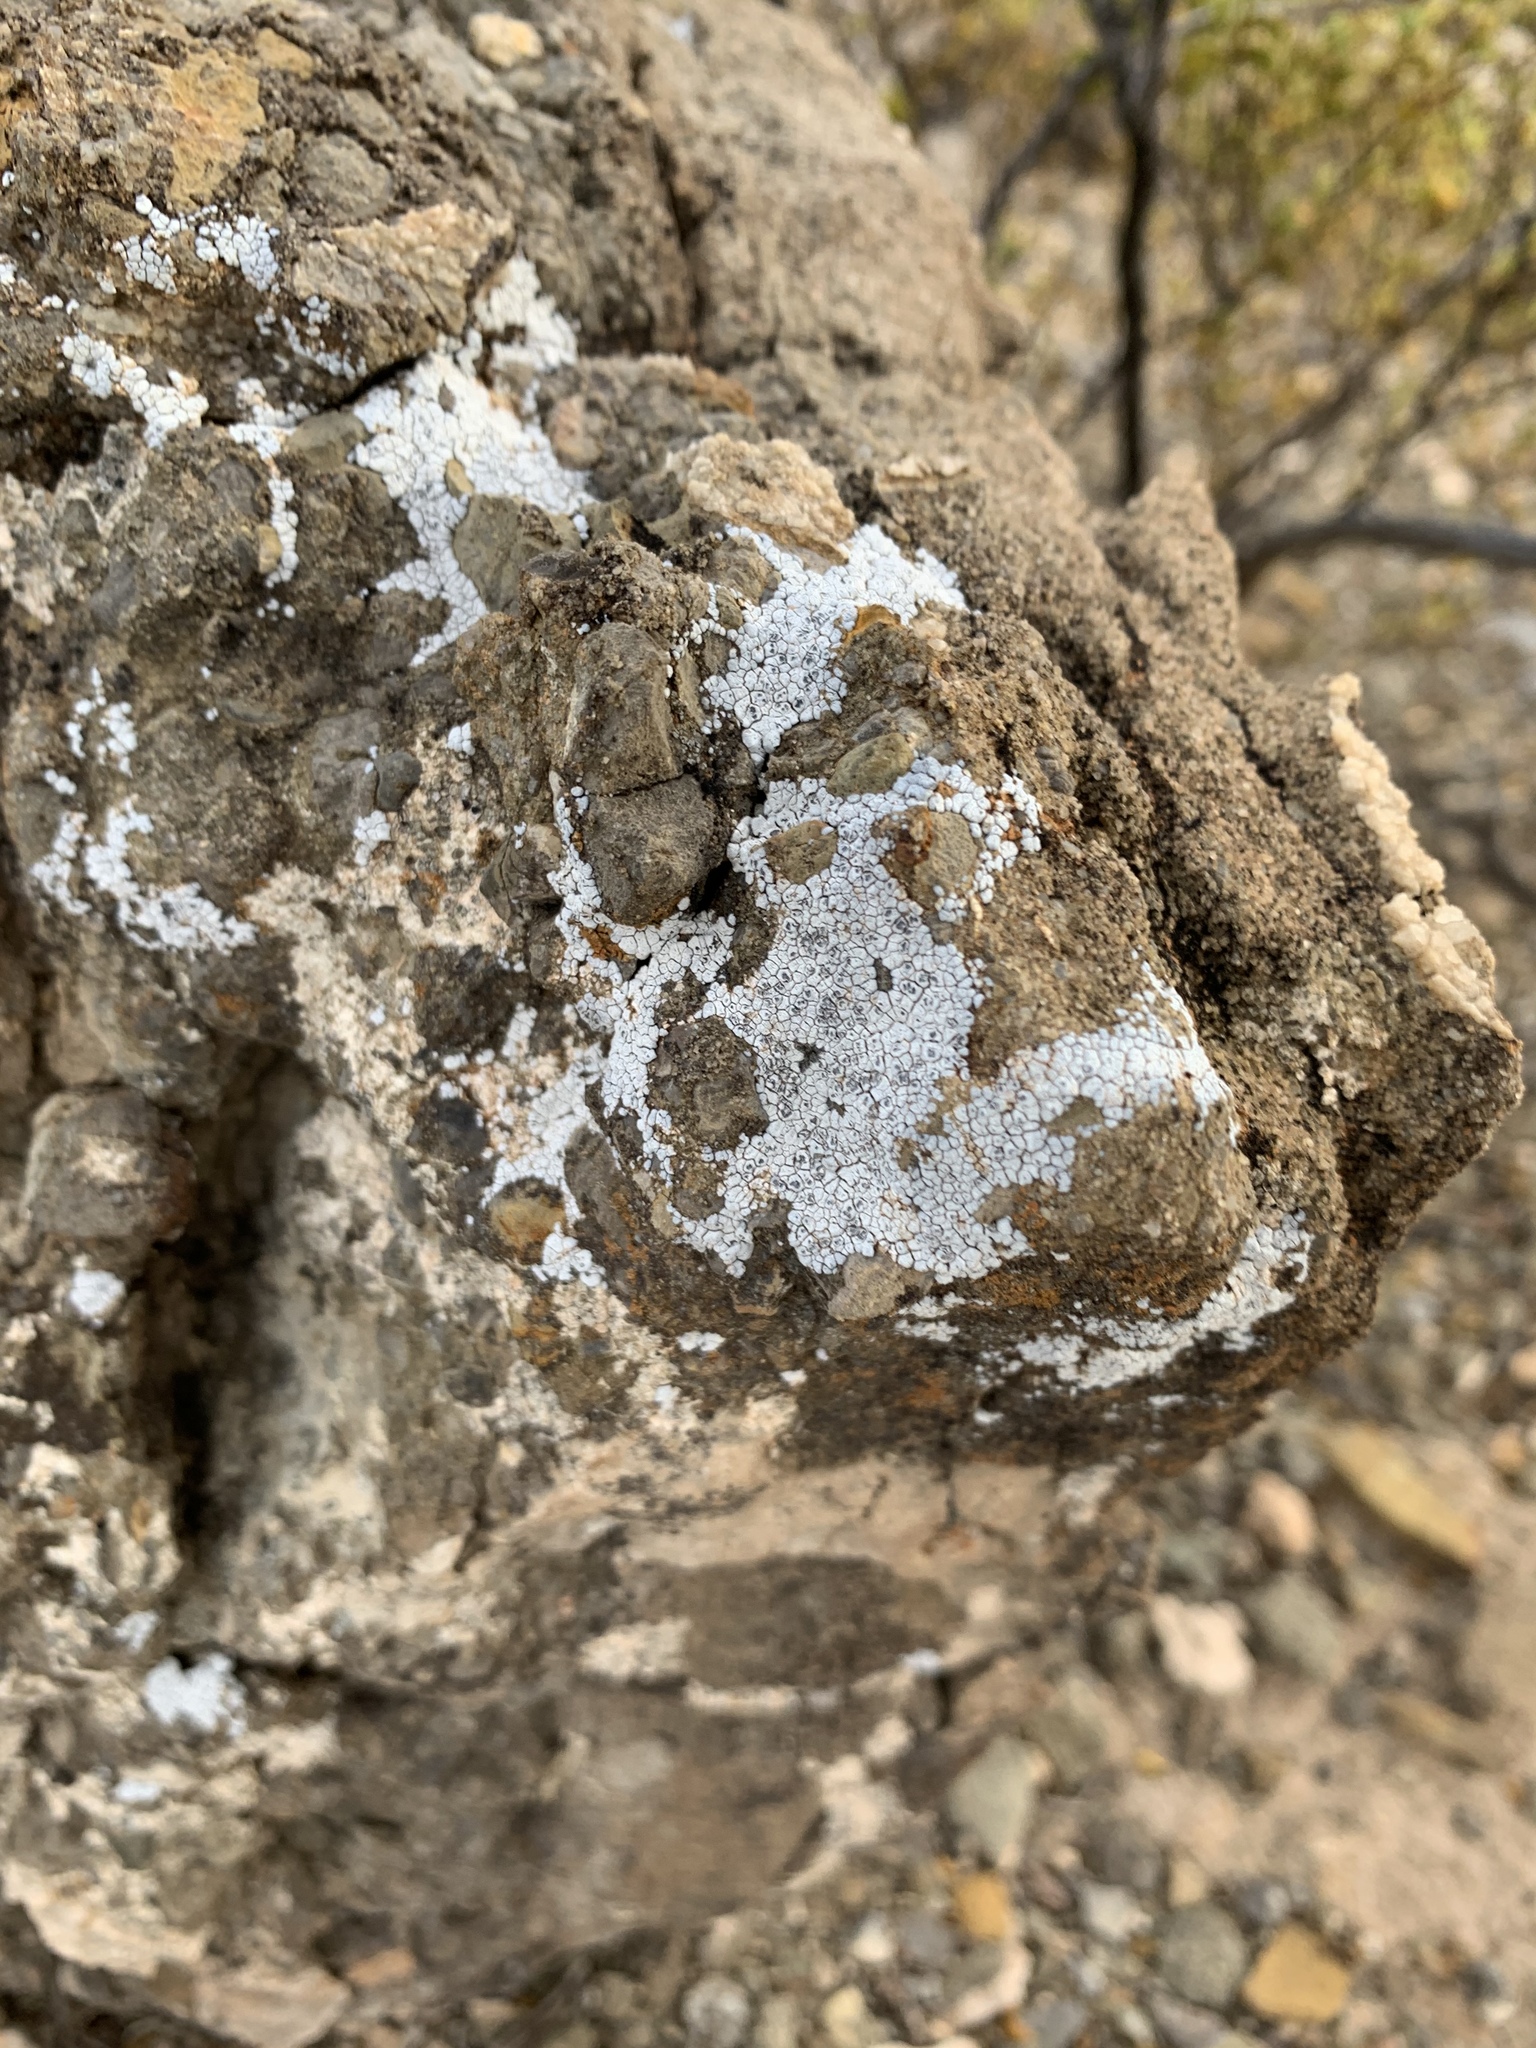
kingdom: Fungi
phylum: Ascomycota
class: Lecanoromycetes
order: Pertusariales
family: Megasporaceae
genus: Aspicilia
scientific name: Aspicilia cinerea
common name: Cinder lichen
